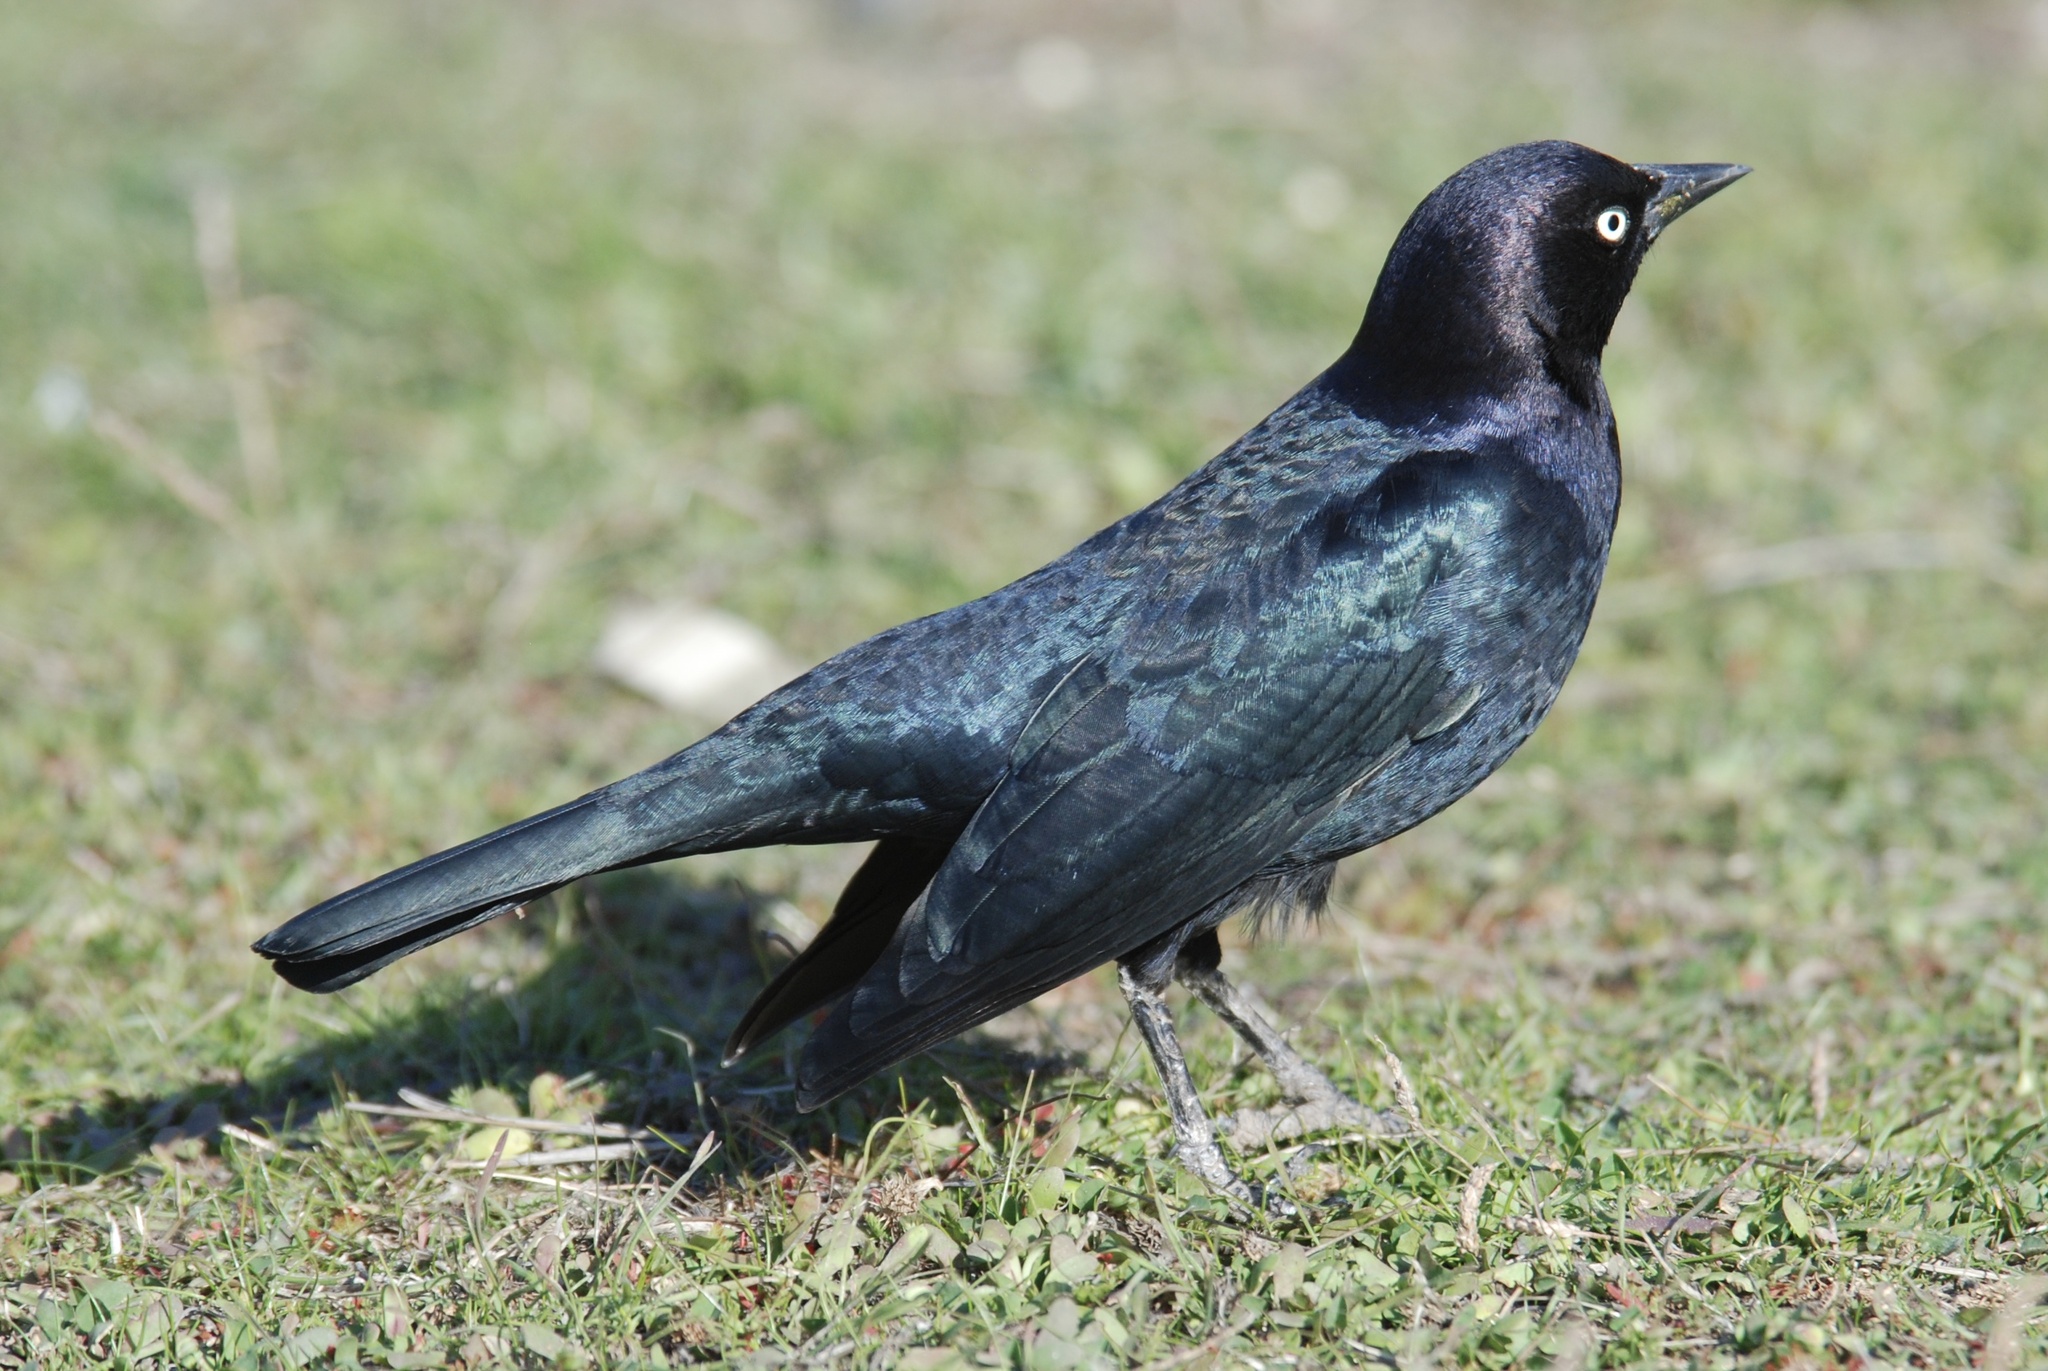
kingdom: Animalia
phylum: Chordata
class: Aves
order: Passeriformes
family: Icteridae
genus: Euphagus
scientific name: Euphagus cyanocephalus
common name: Brewer's blackbird
